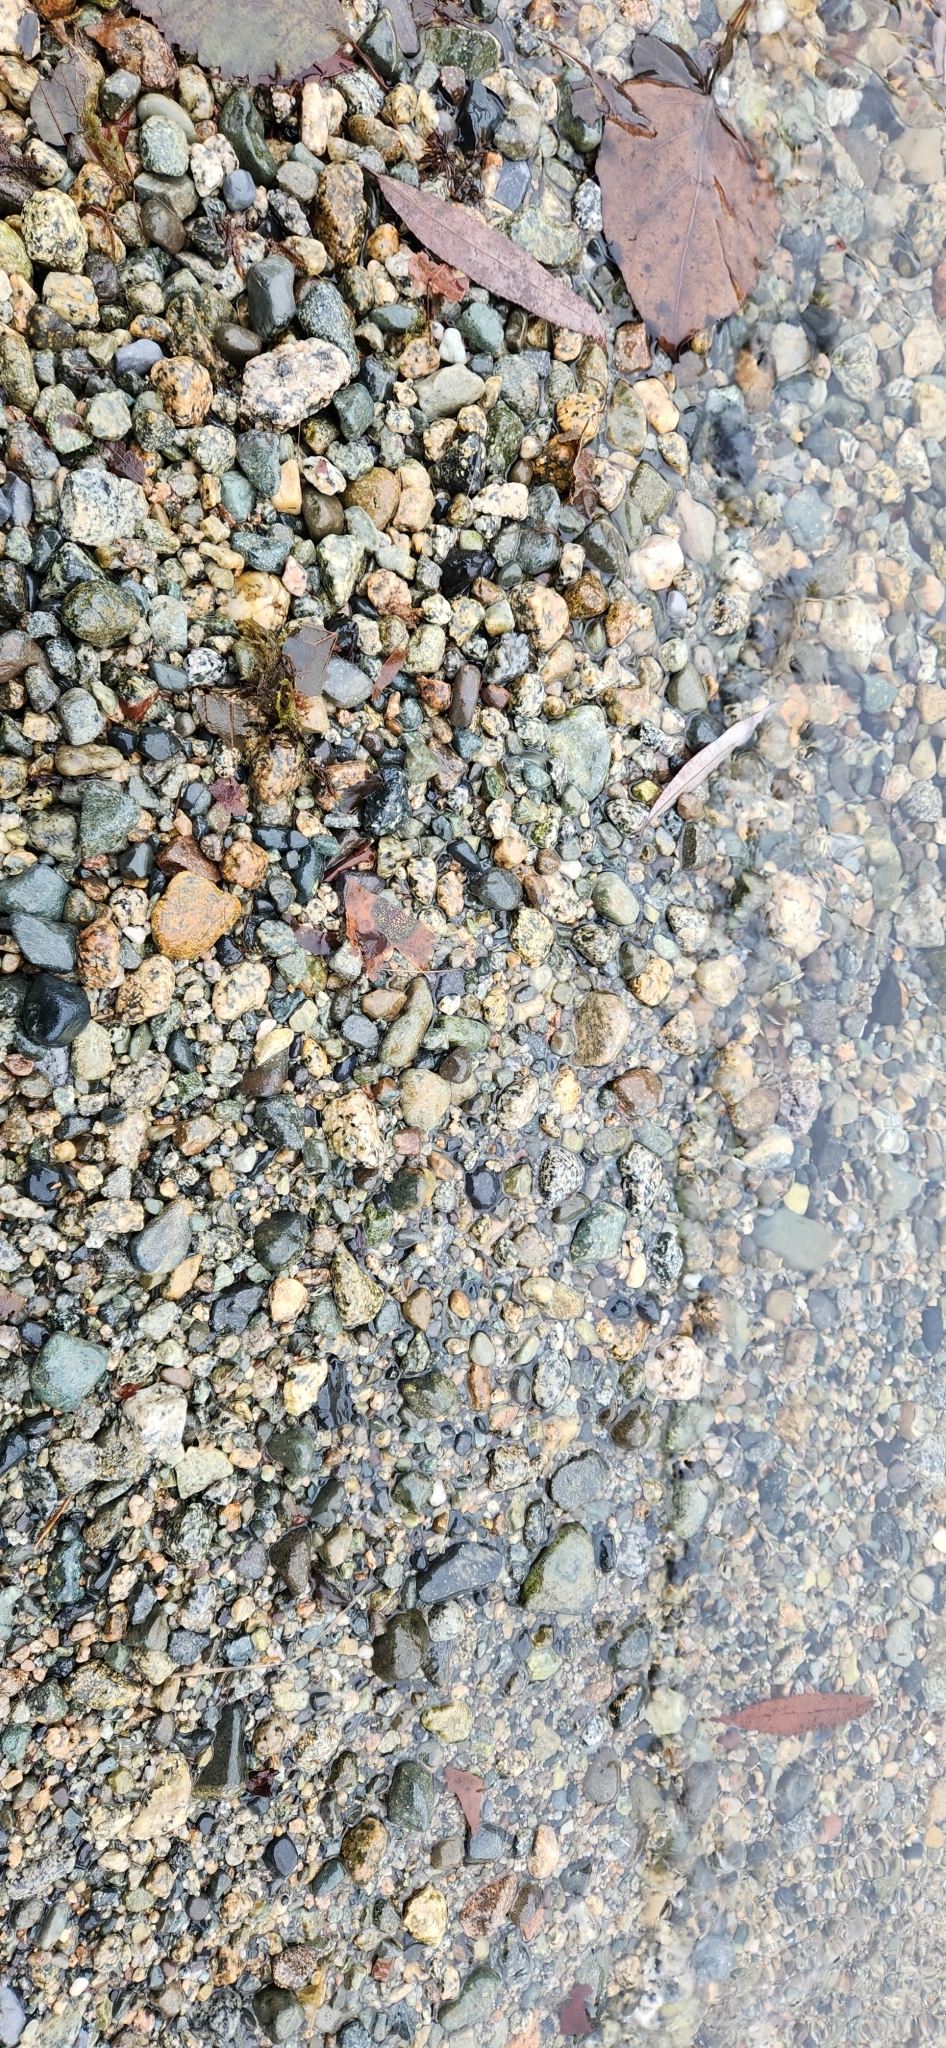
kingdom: Fungi
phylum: Ascomycota
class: Leotiomycetes
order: Rhytismatales
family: Rhytismataceae
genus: Rhytisma
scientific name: Rhytisma punctatum
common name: Speckled tar spot
